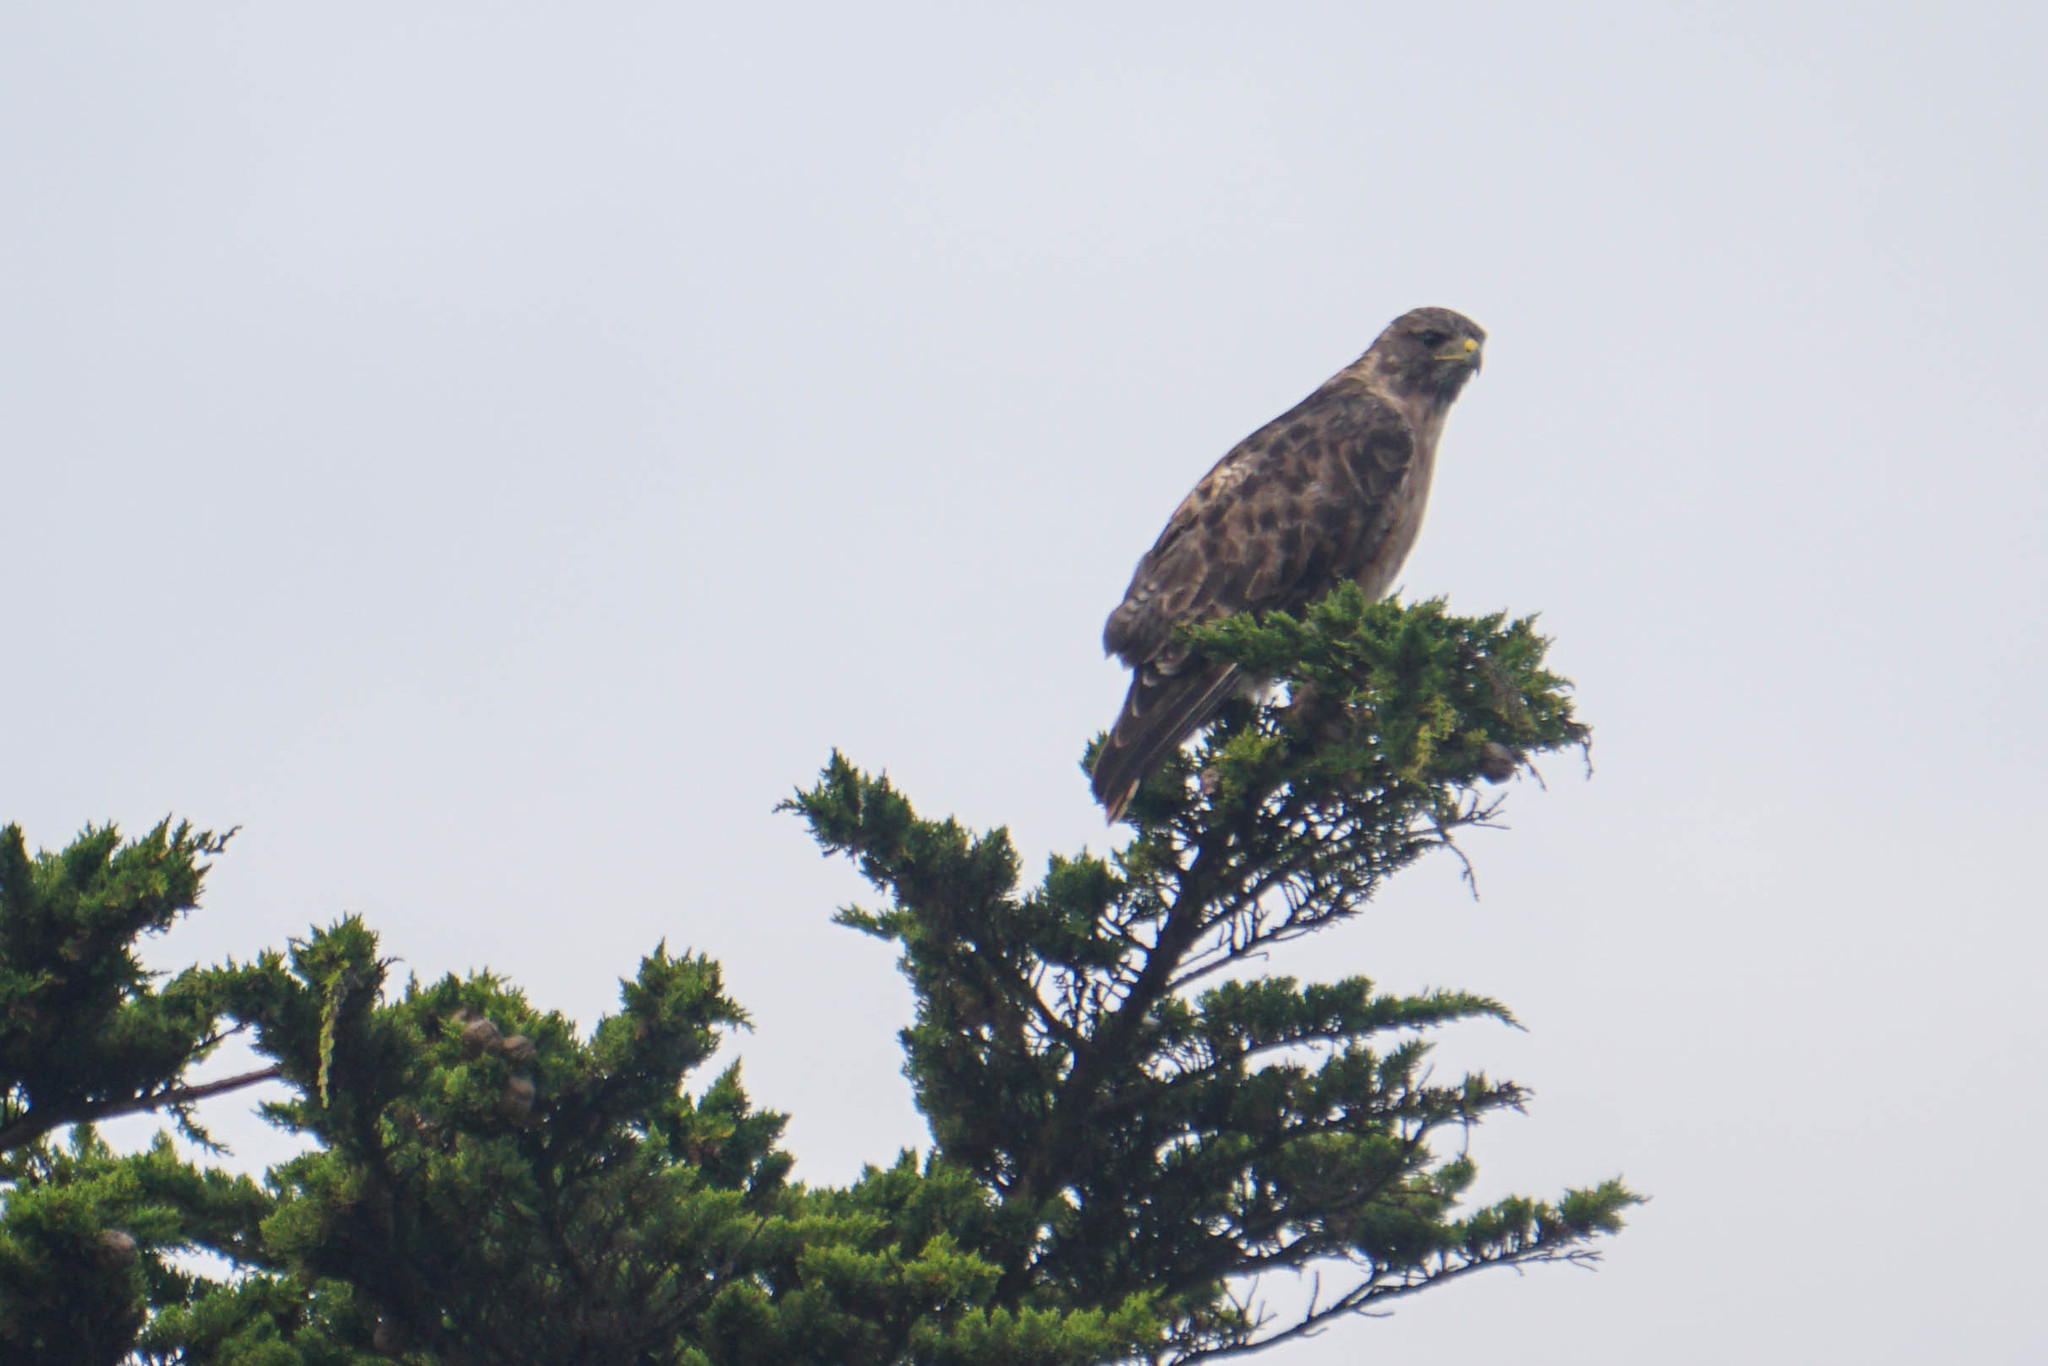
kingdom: Animalia
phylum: Chordata
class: Aves
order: Accipitriformes
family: Accipitridae
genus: Buteo
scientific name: Buteo jamaicensis
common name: Red-tailed hawk
